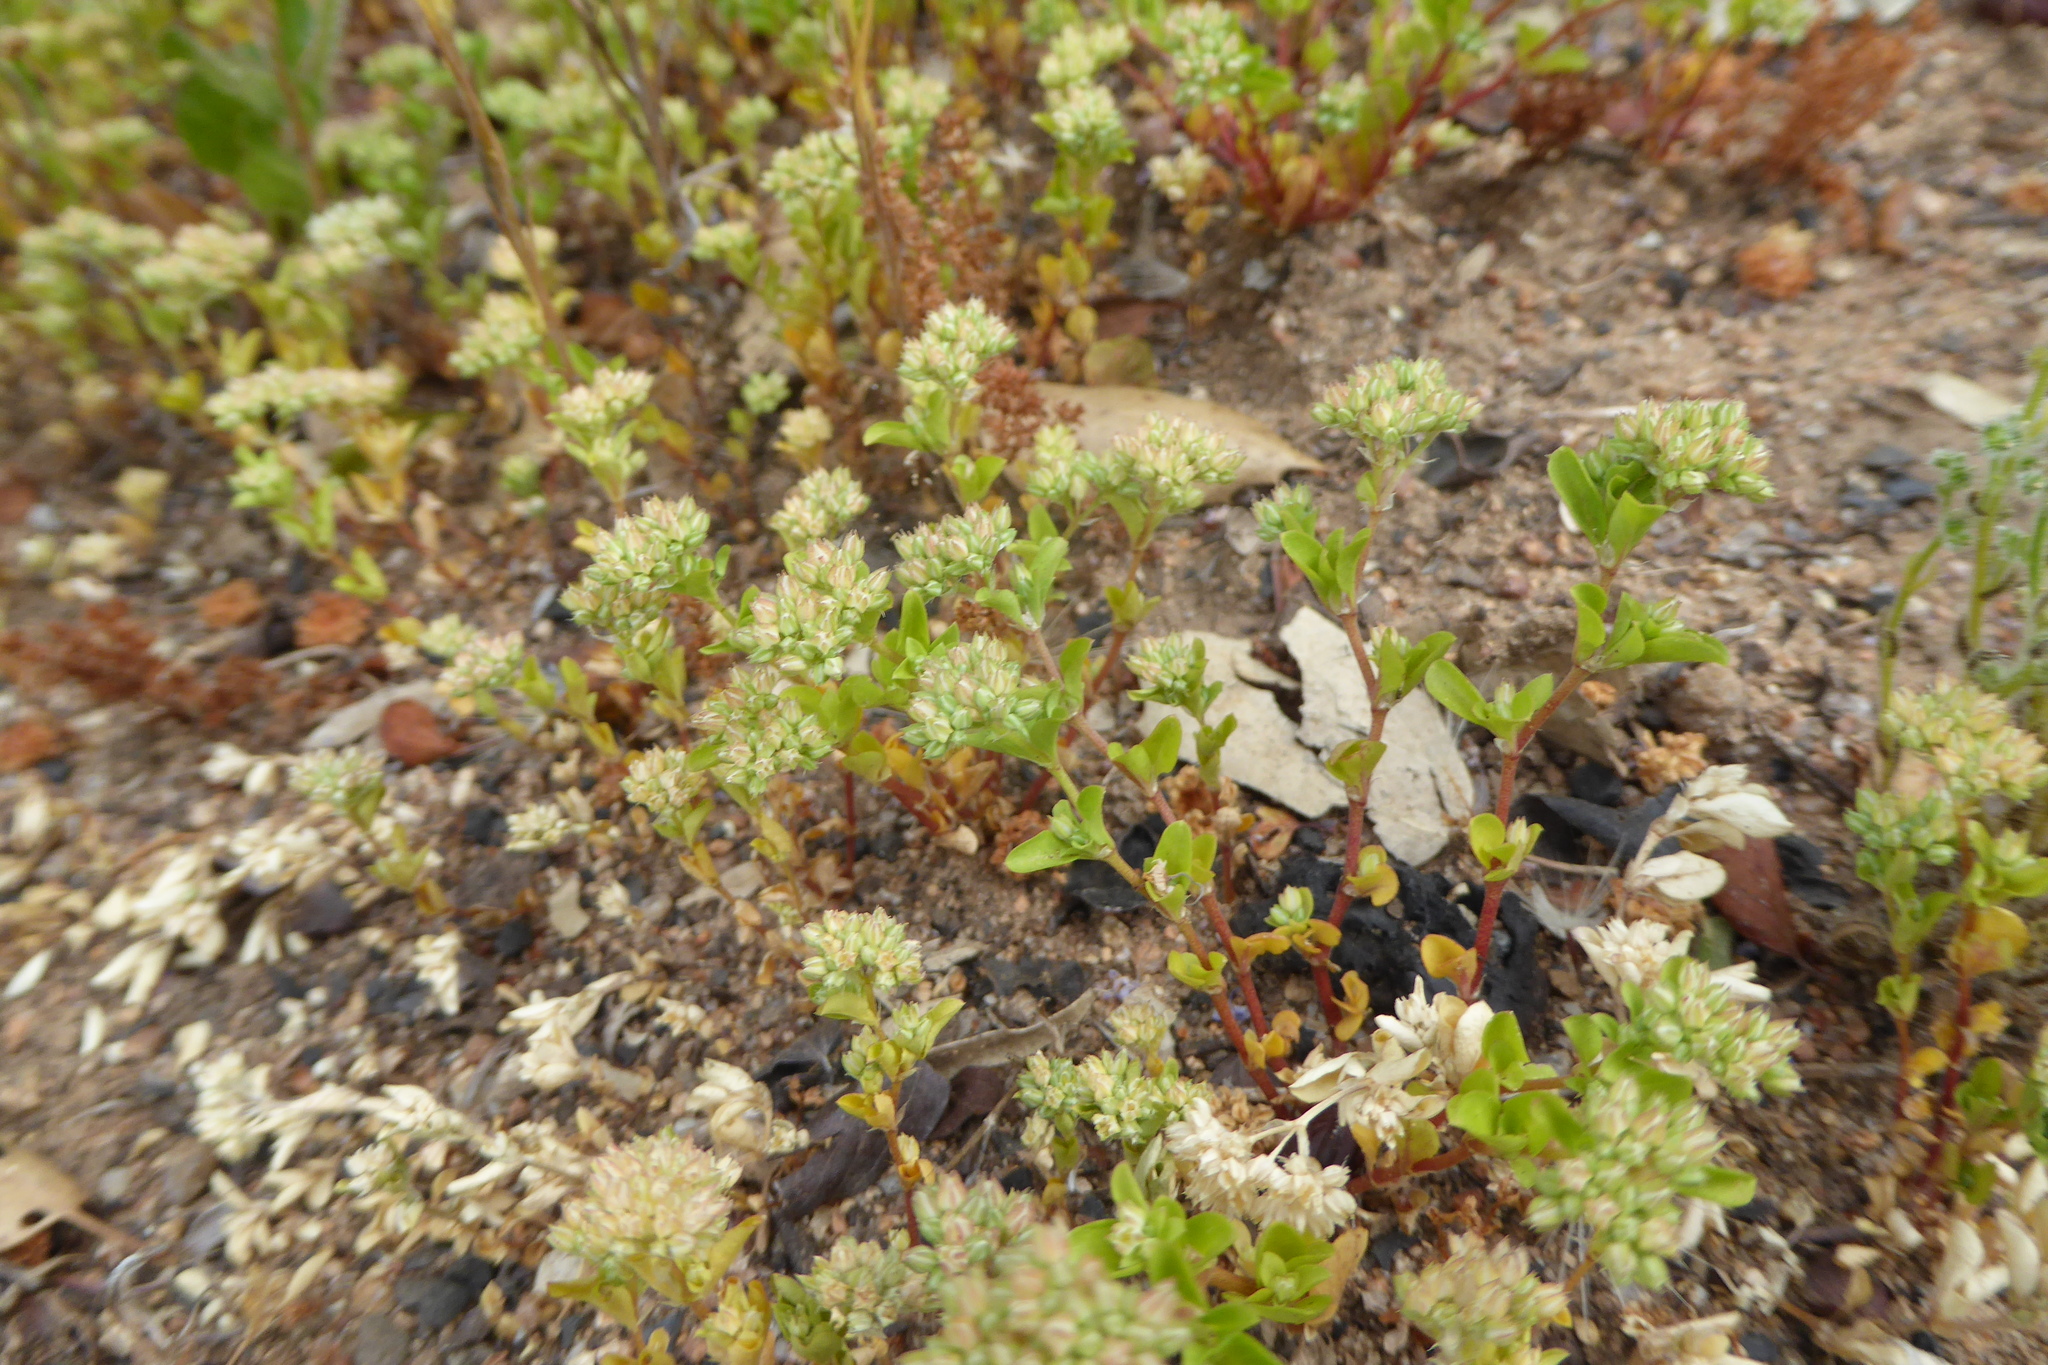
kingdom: Plantae
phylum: Tracheophyta
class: Magnoliopsida
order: Caryophyllales
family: Caryophyllaceae
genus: Polycarpon
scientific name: Polycarpon tetraphyllum
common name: Four-leaved all-seed
